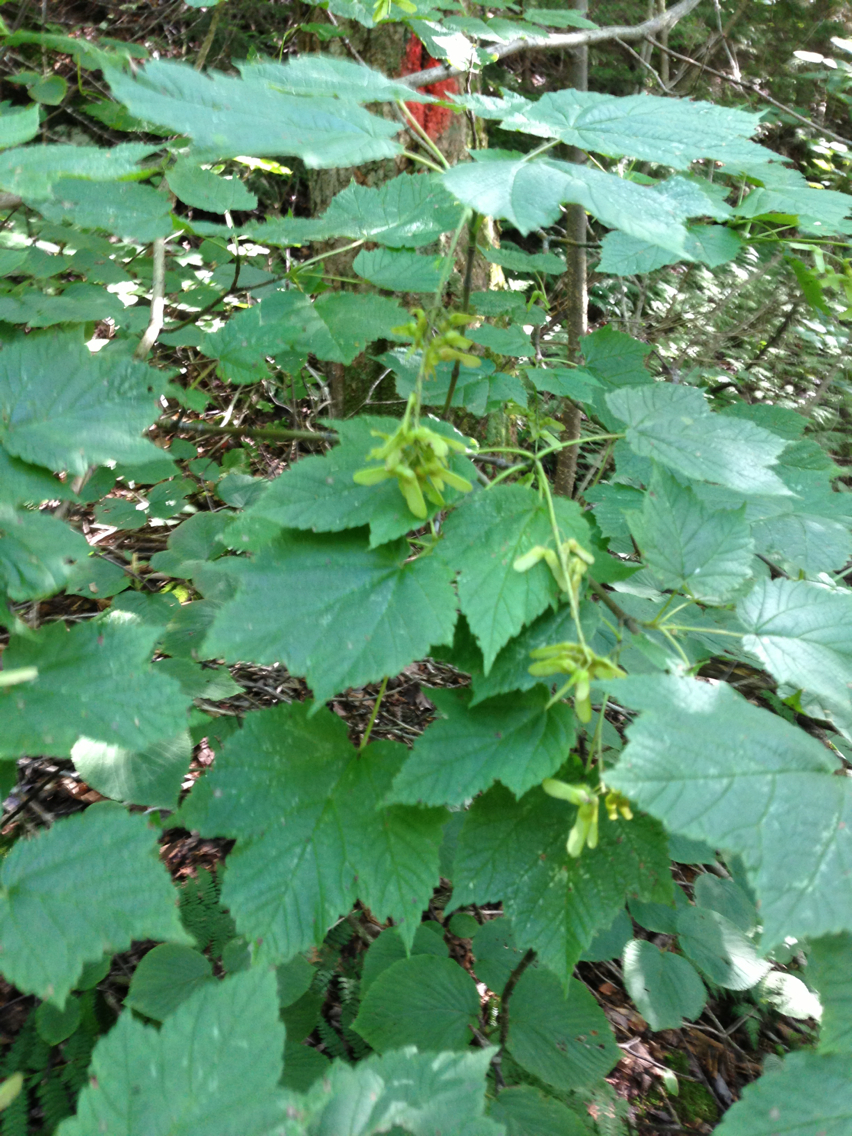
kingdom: Plantae
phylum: Tracheophyta
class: Magnoliopsida
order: Sapindales
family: Sapindaceae
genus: Acer
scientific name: Acer spicatum
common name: Mountain maple
